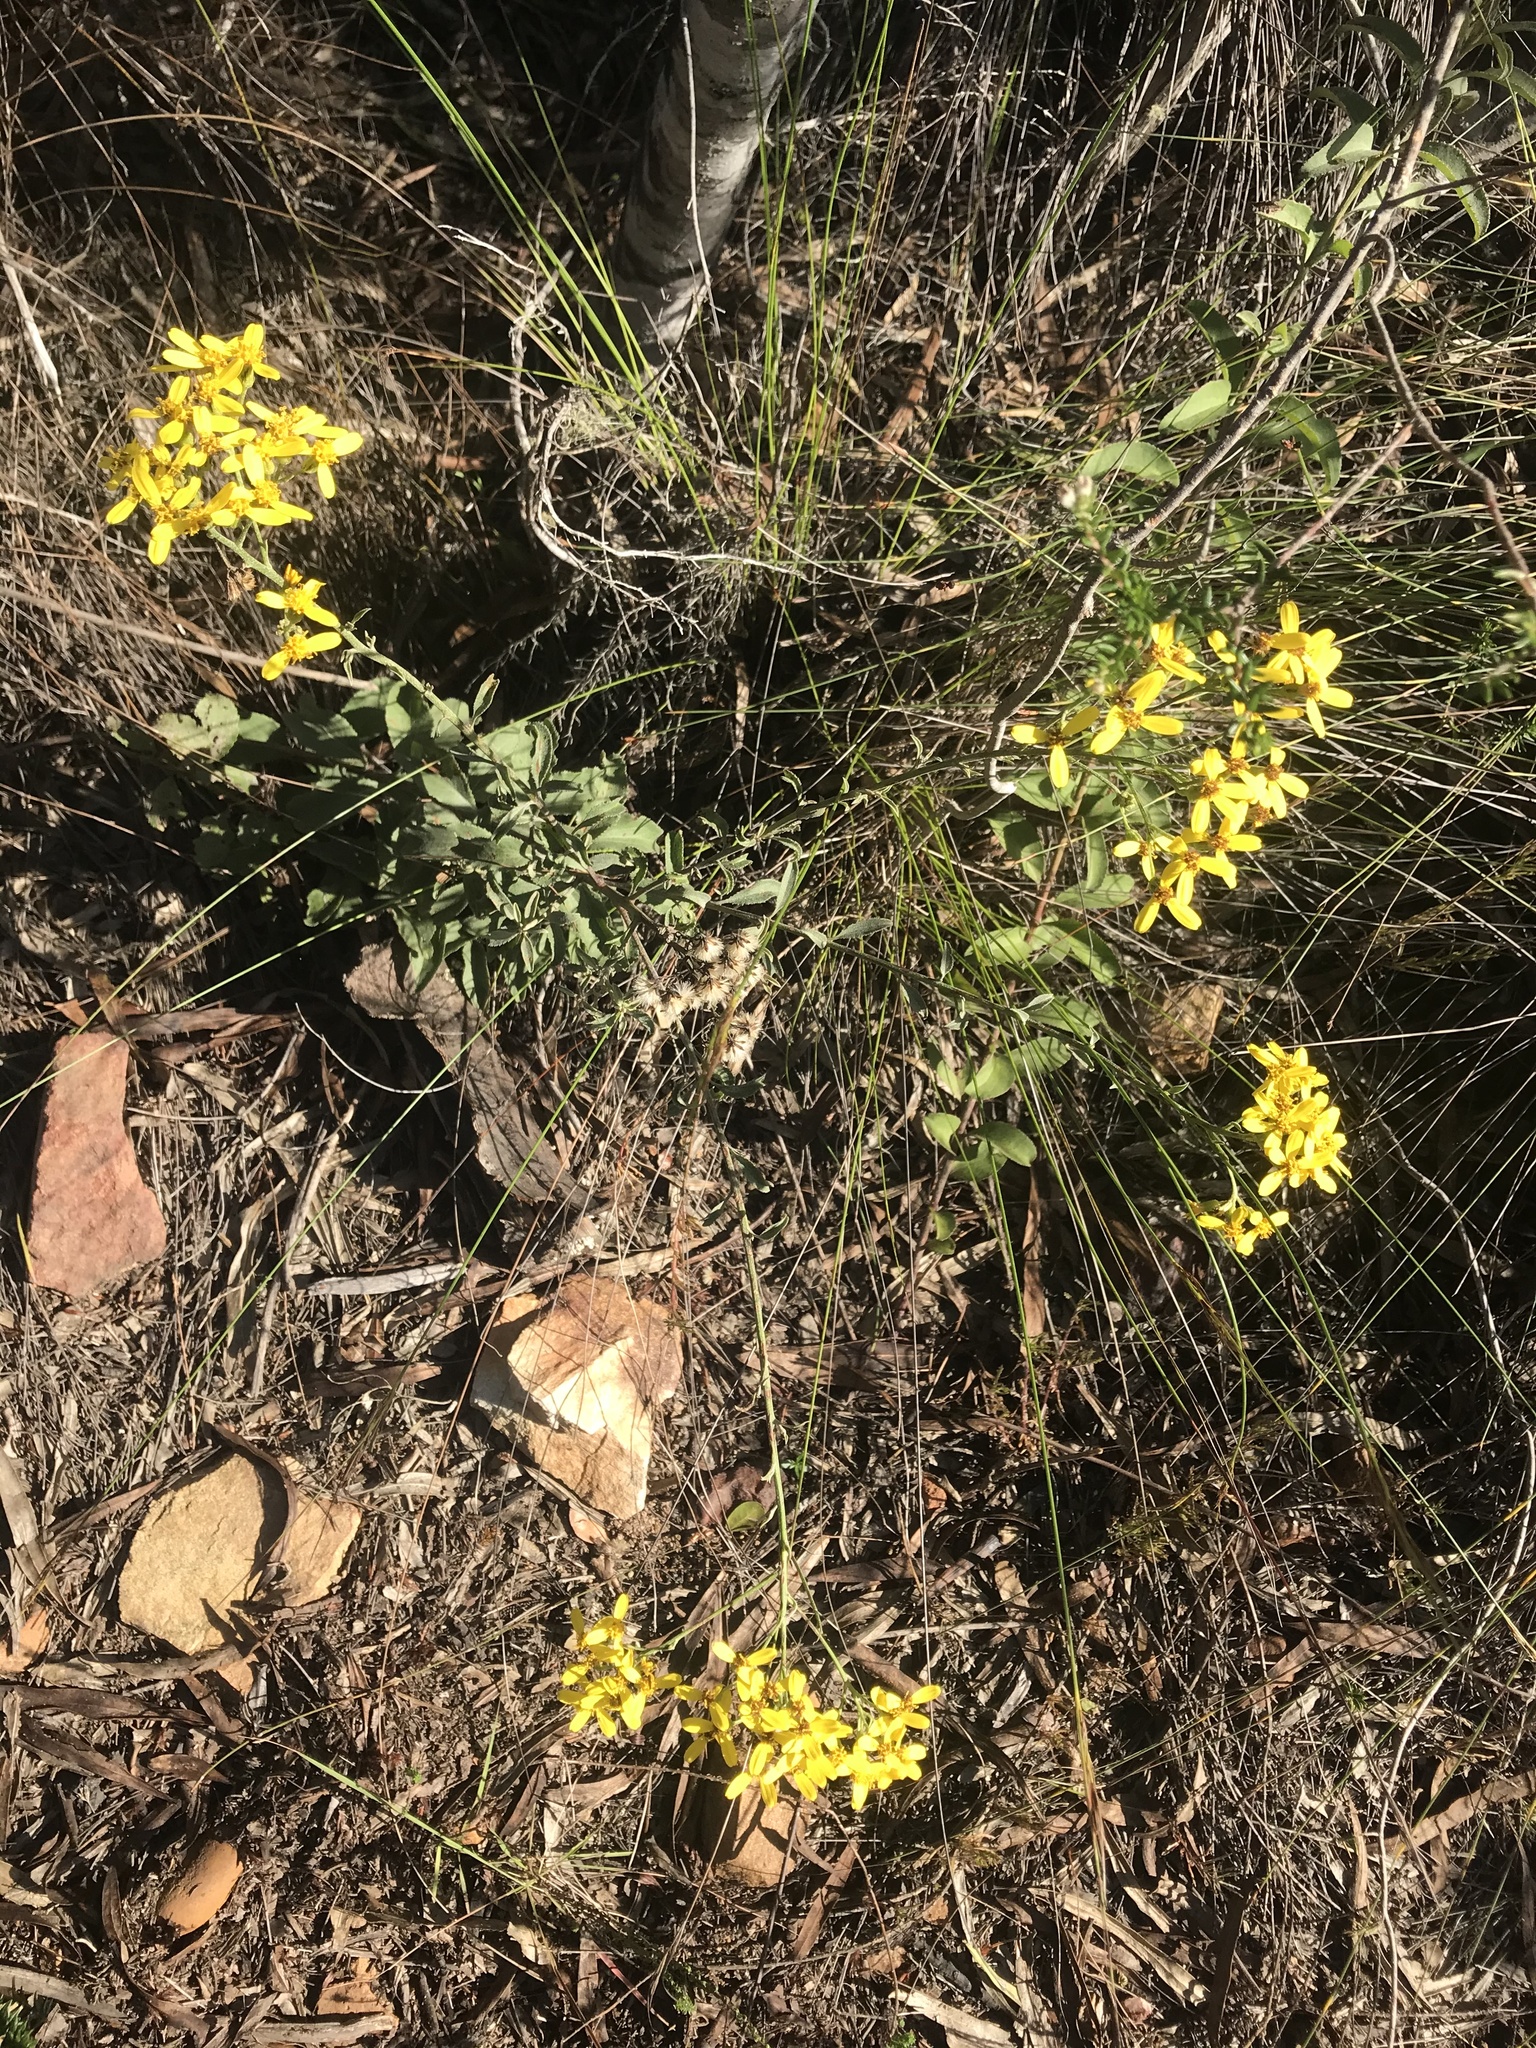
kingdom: Plantae
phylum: Tracheophyta
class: Magnoliopsida
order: Asterales
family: Asteraceae
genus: Senecio
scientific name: Senecio crenatus
